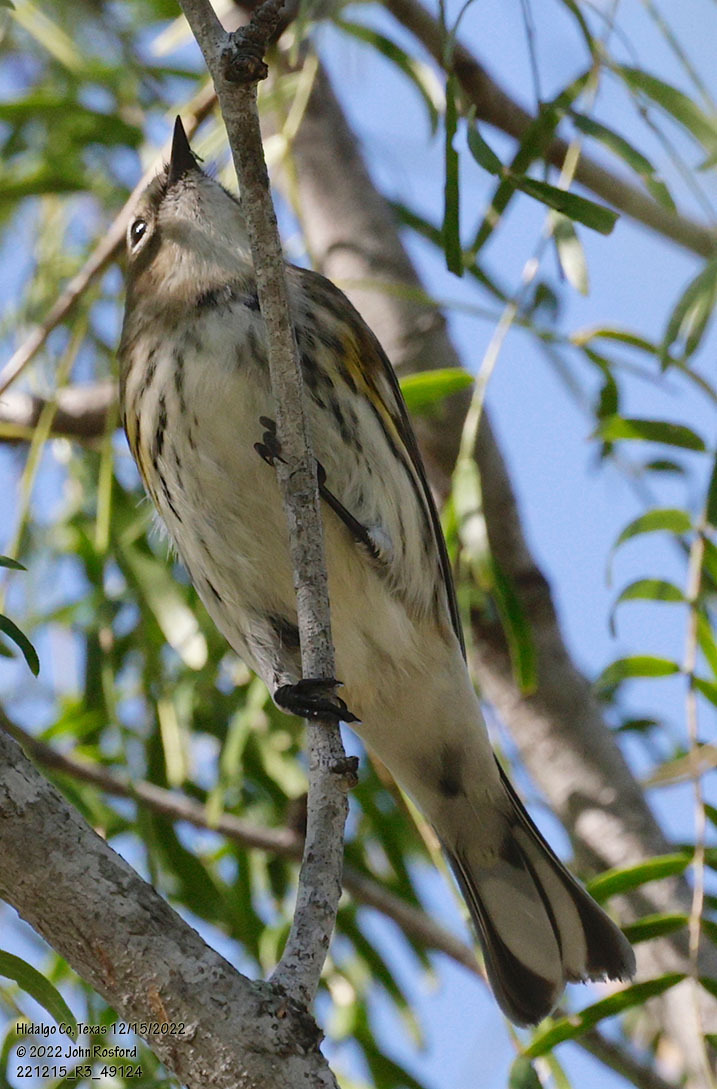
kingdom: Animalia
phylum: Chordata
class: Aves
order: Passeriformes
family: Parulidae
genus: Setophaga
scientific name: Setophaga coronata
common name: Myrtle warbler
